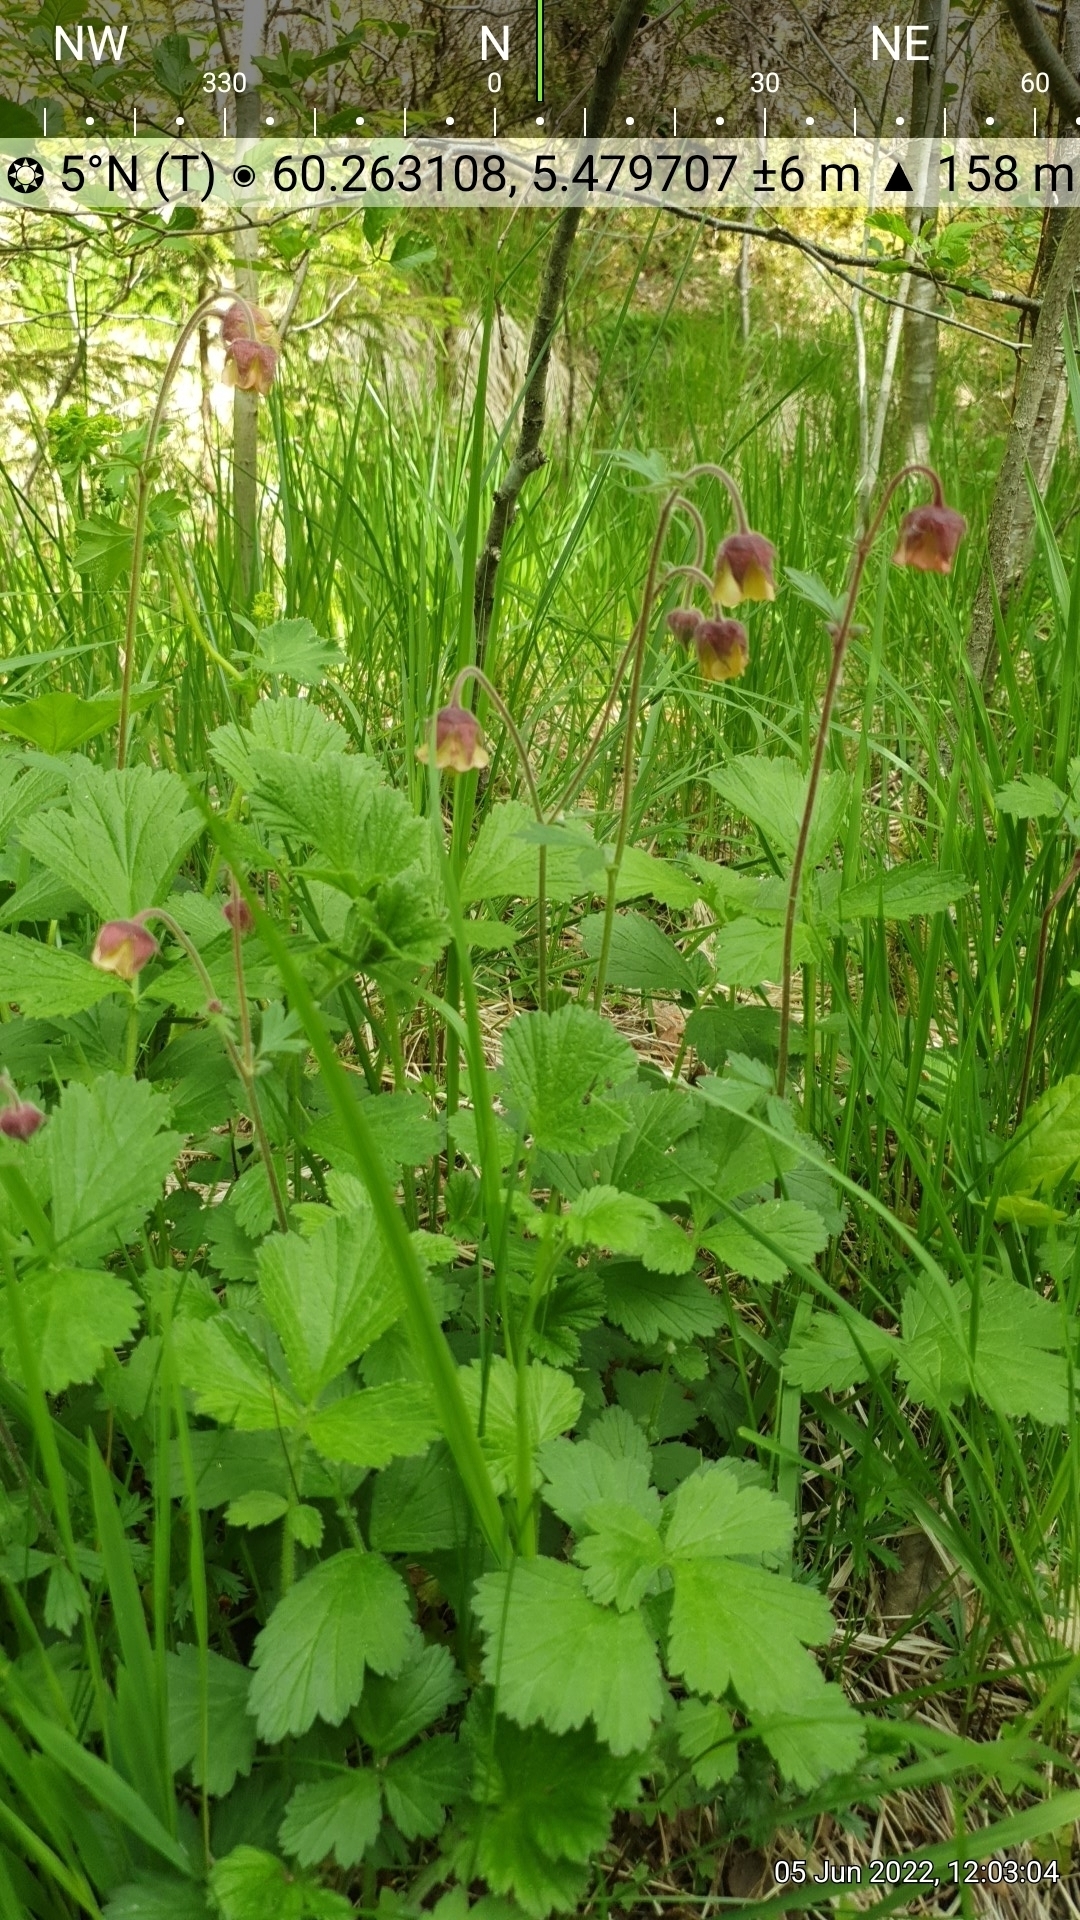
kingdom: Plantae
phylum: Tracheophyta
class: Magnoliopsida
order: Rosales
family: Rosaceae
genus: Geum
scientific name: Geum rivale
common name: Water avens
